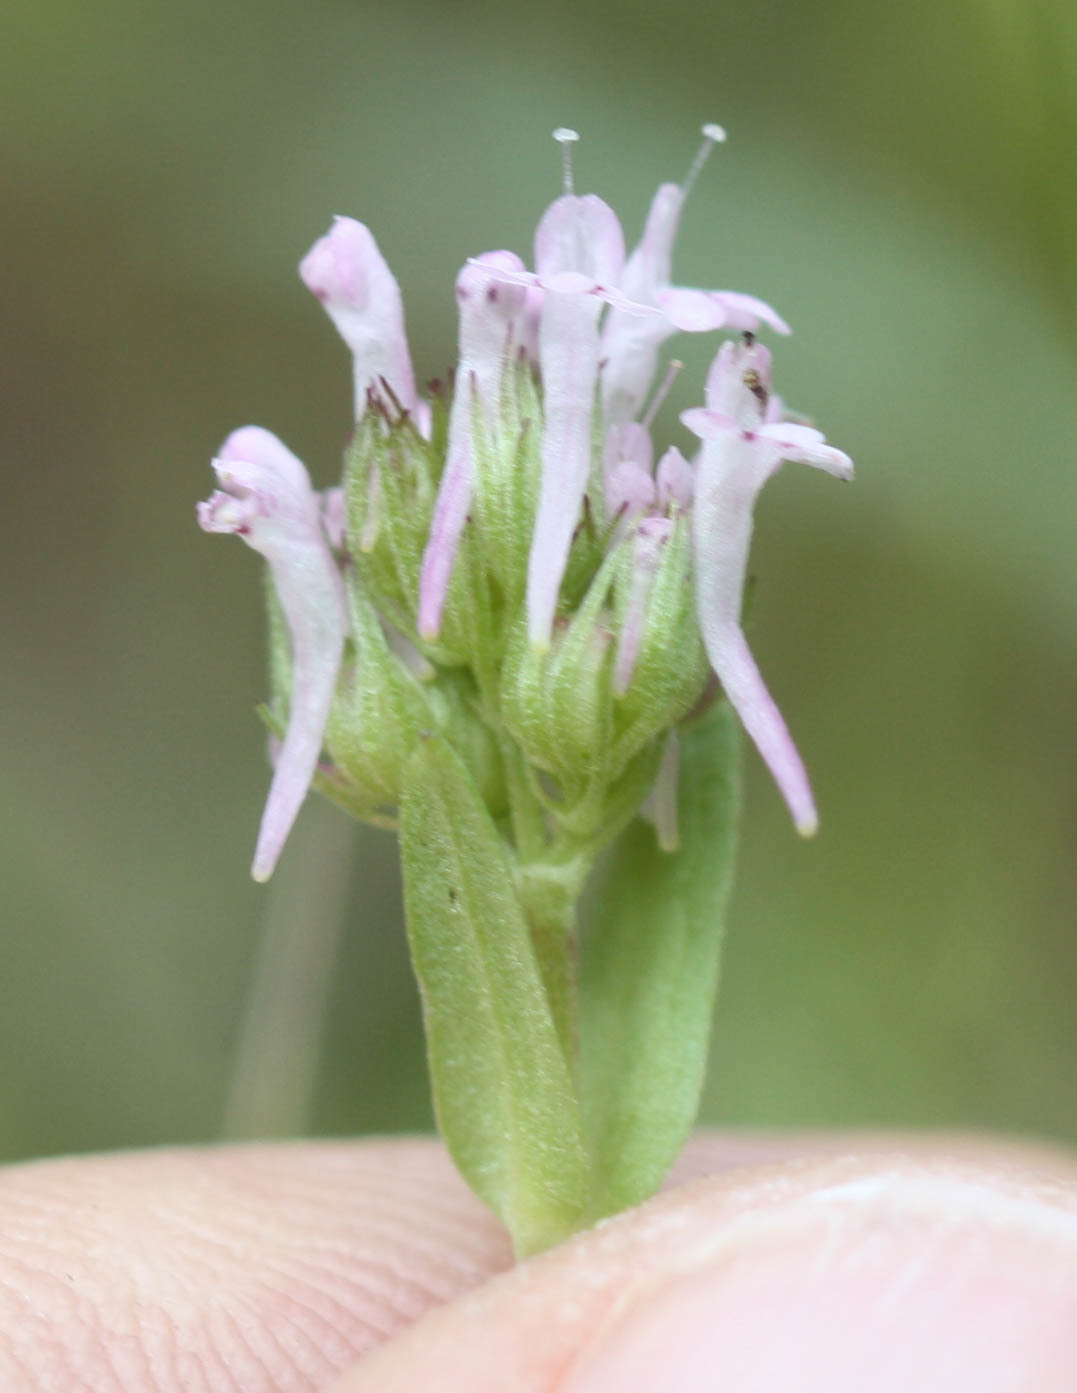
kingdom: Plantae
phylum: Tracheophyta
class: Magnoliopsida
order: Dipsacales
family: Caprifoliaceae
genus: Plectritis
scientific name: Plectritis ciliosa
